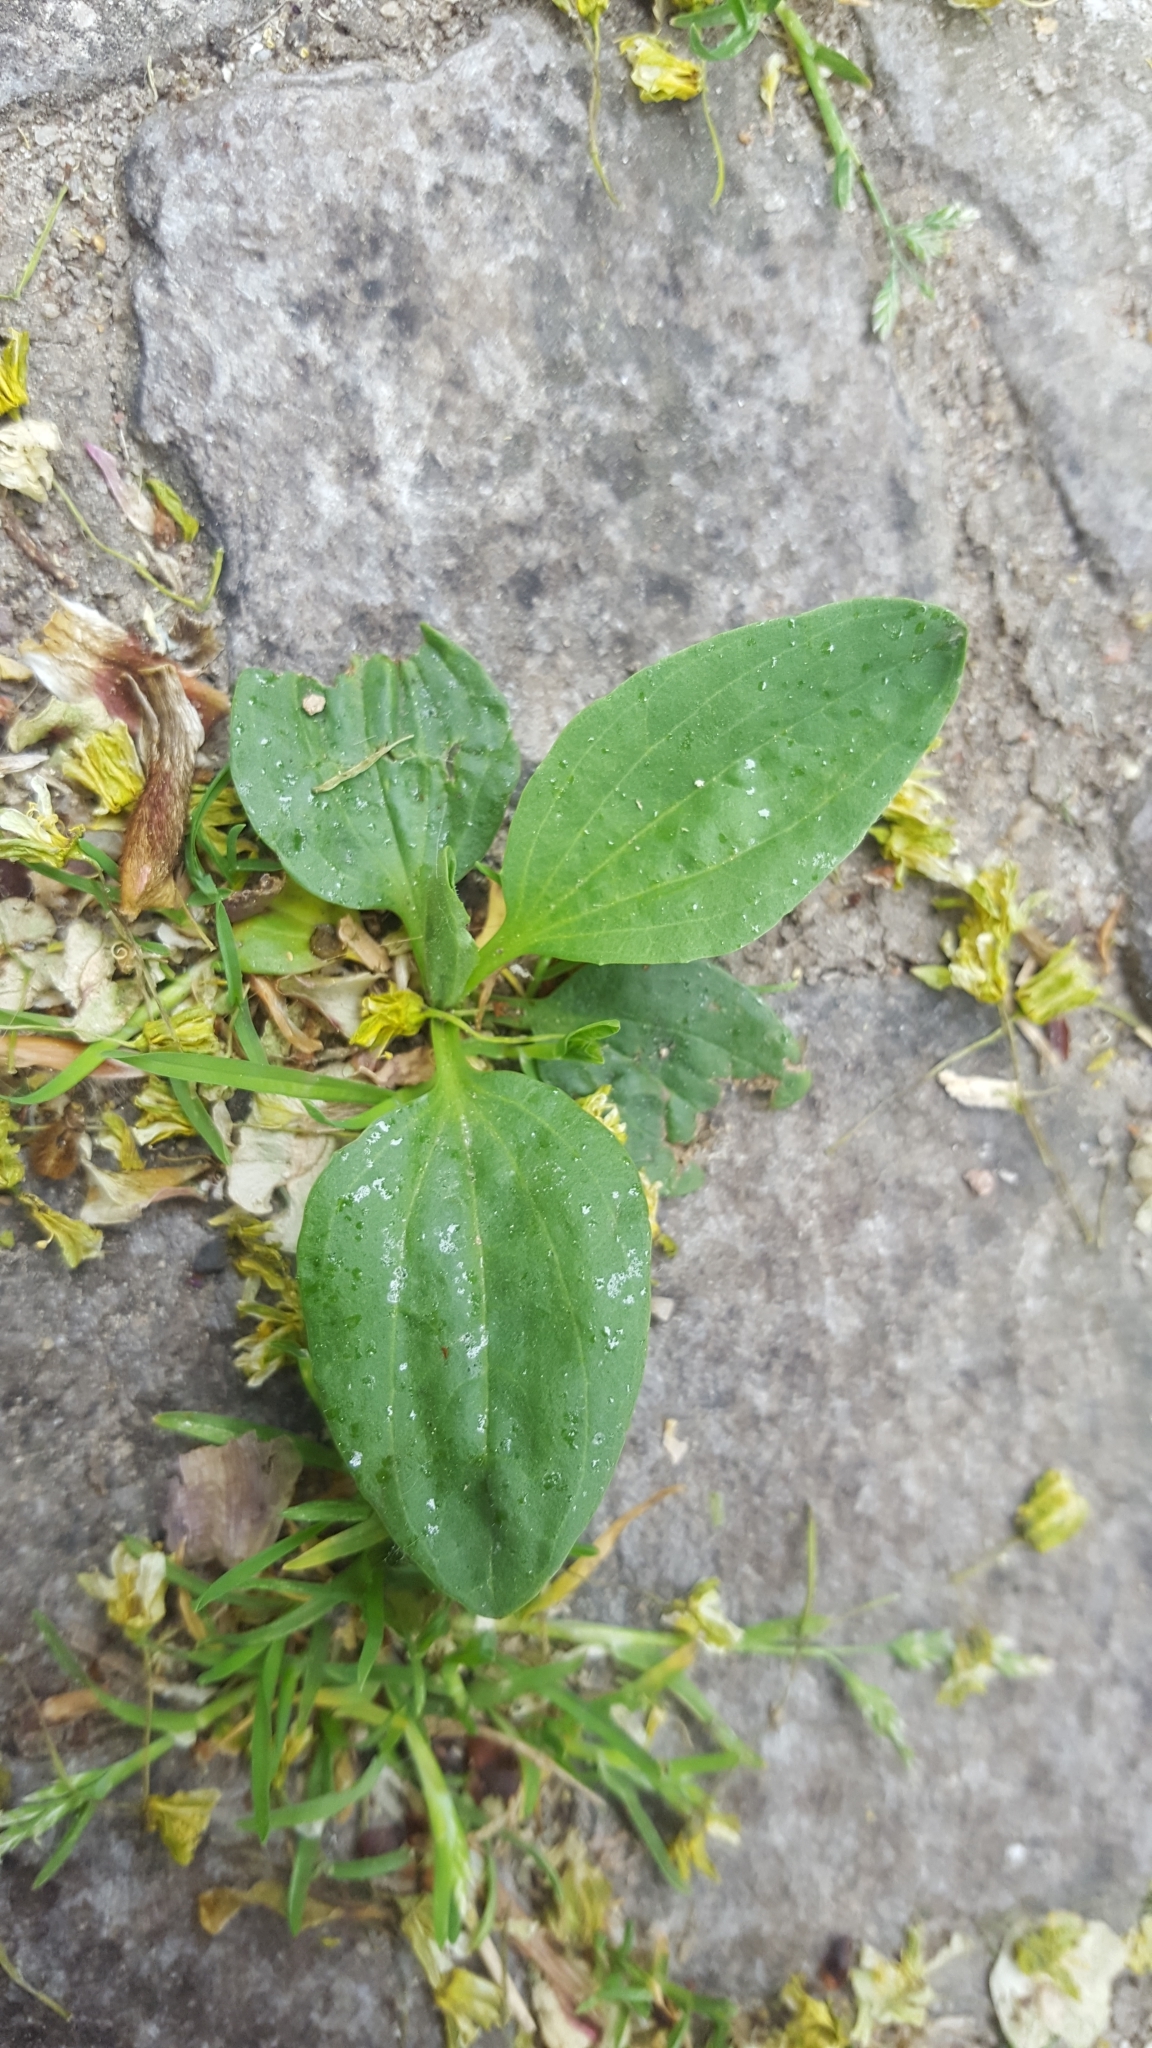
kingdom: Plantae
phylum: Tracheophyta
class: Magnoliopsida
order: Lamiales
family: Plantaginaceae
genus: Plantago
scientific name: Plantago major
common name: Common plantain
